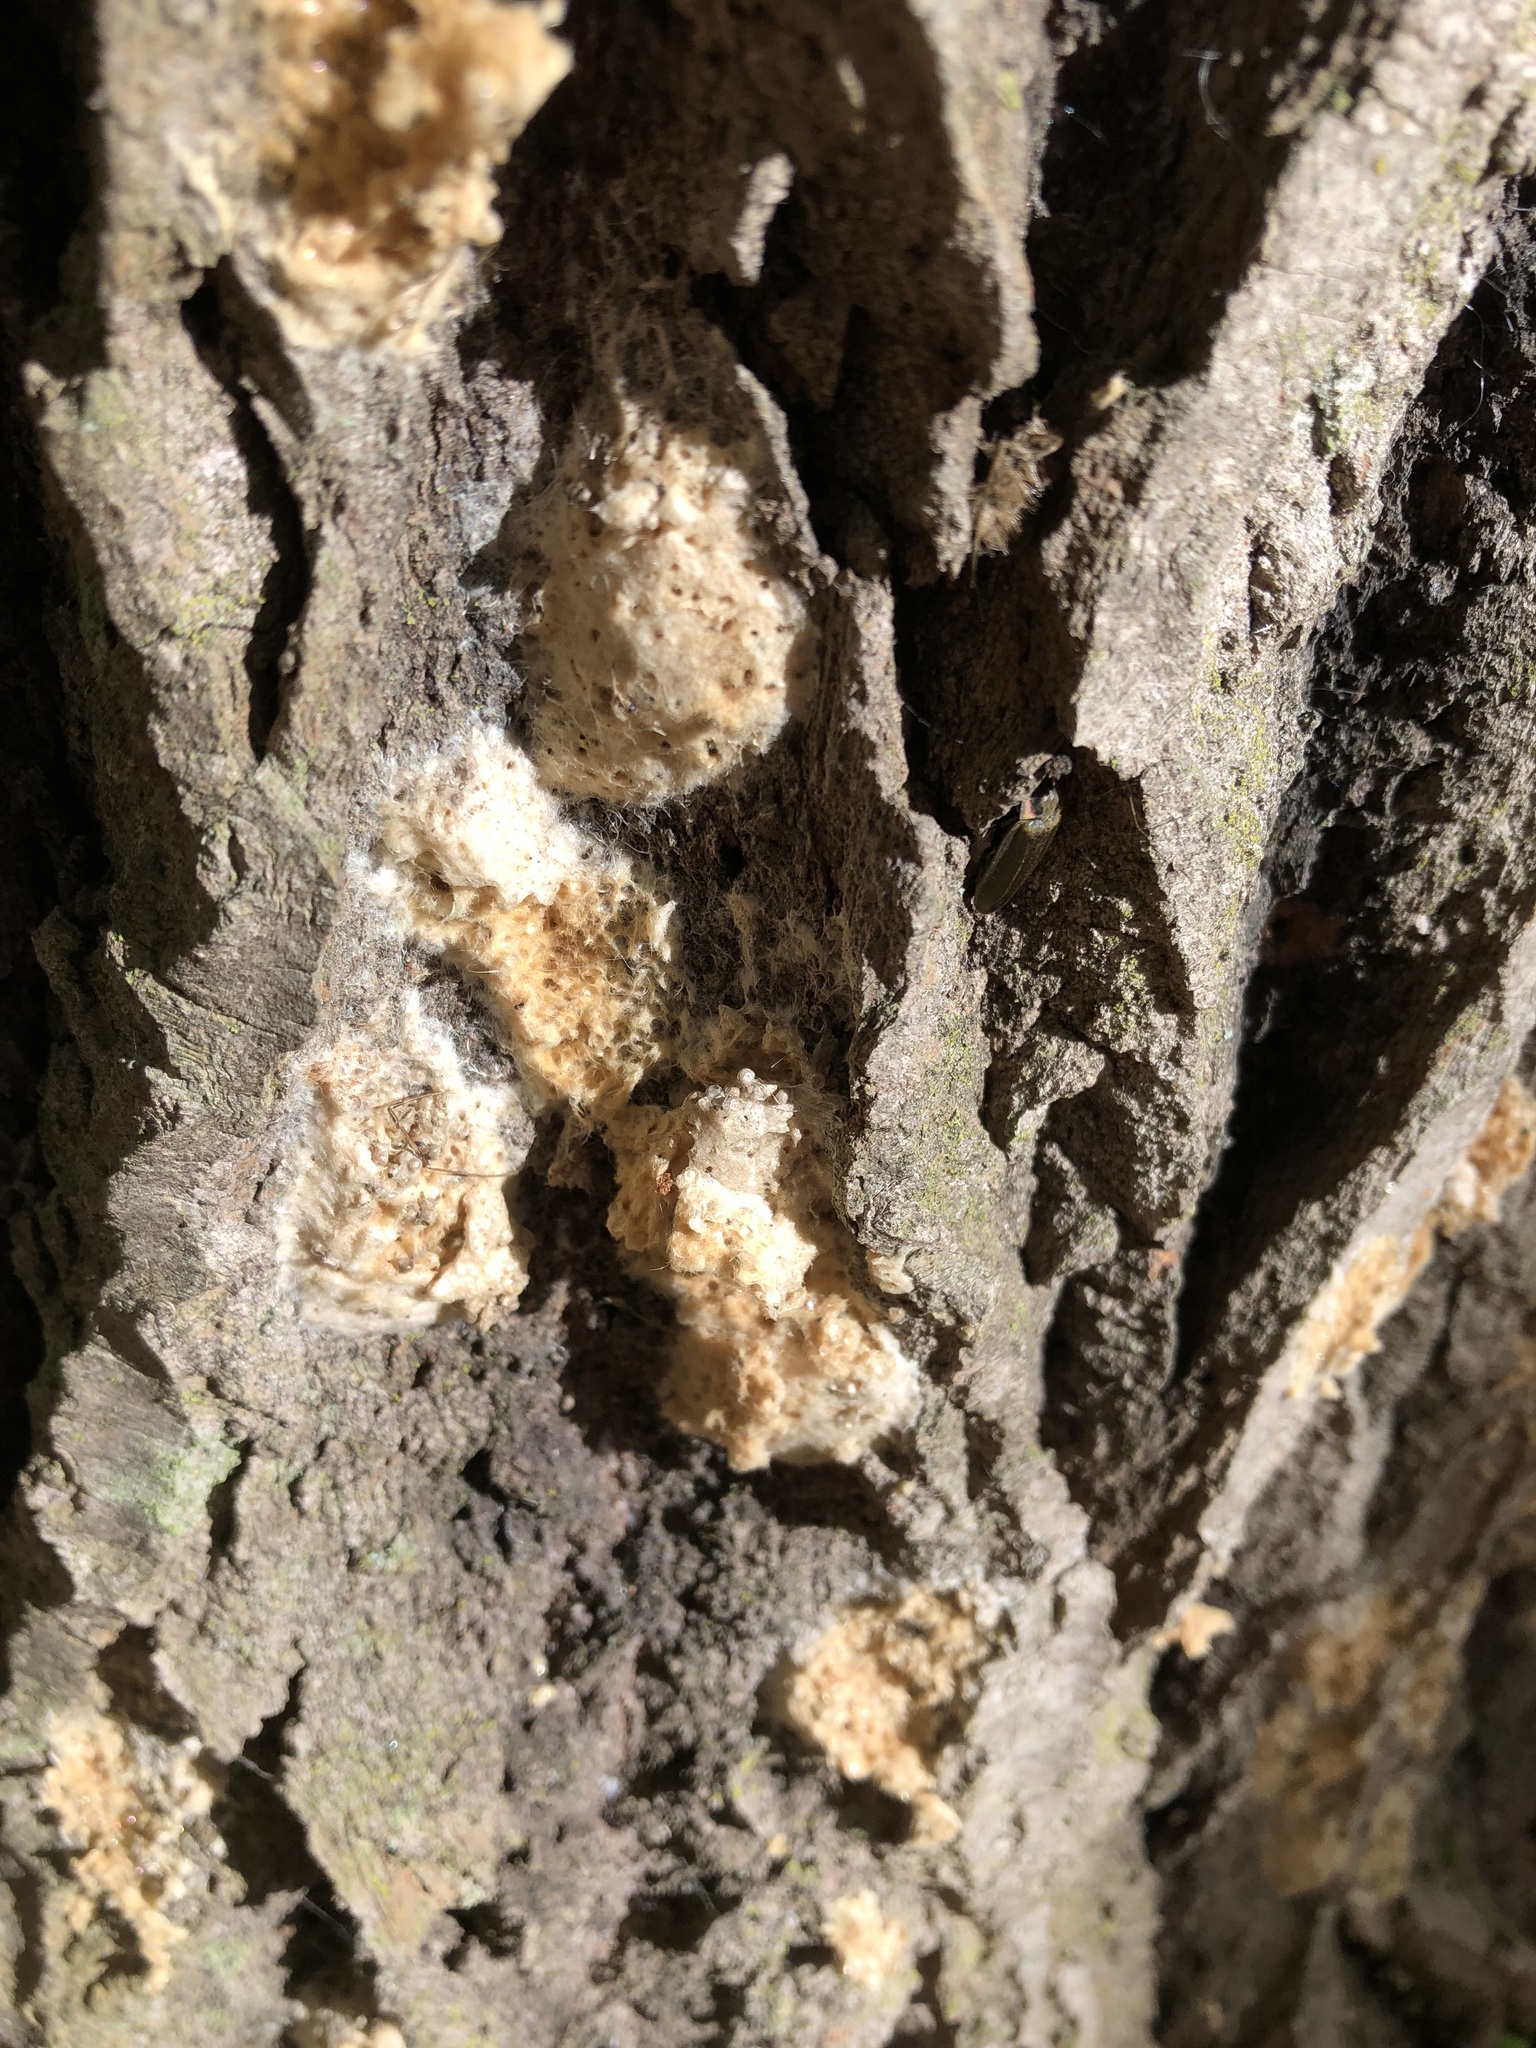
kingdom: Animalia
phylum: Arthropoda
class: Insecta
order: Lepidoptera
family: Erebidae
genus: Lymantria
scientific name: Lymantria dispar
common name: Gypsy moth
